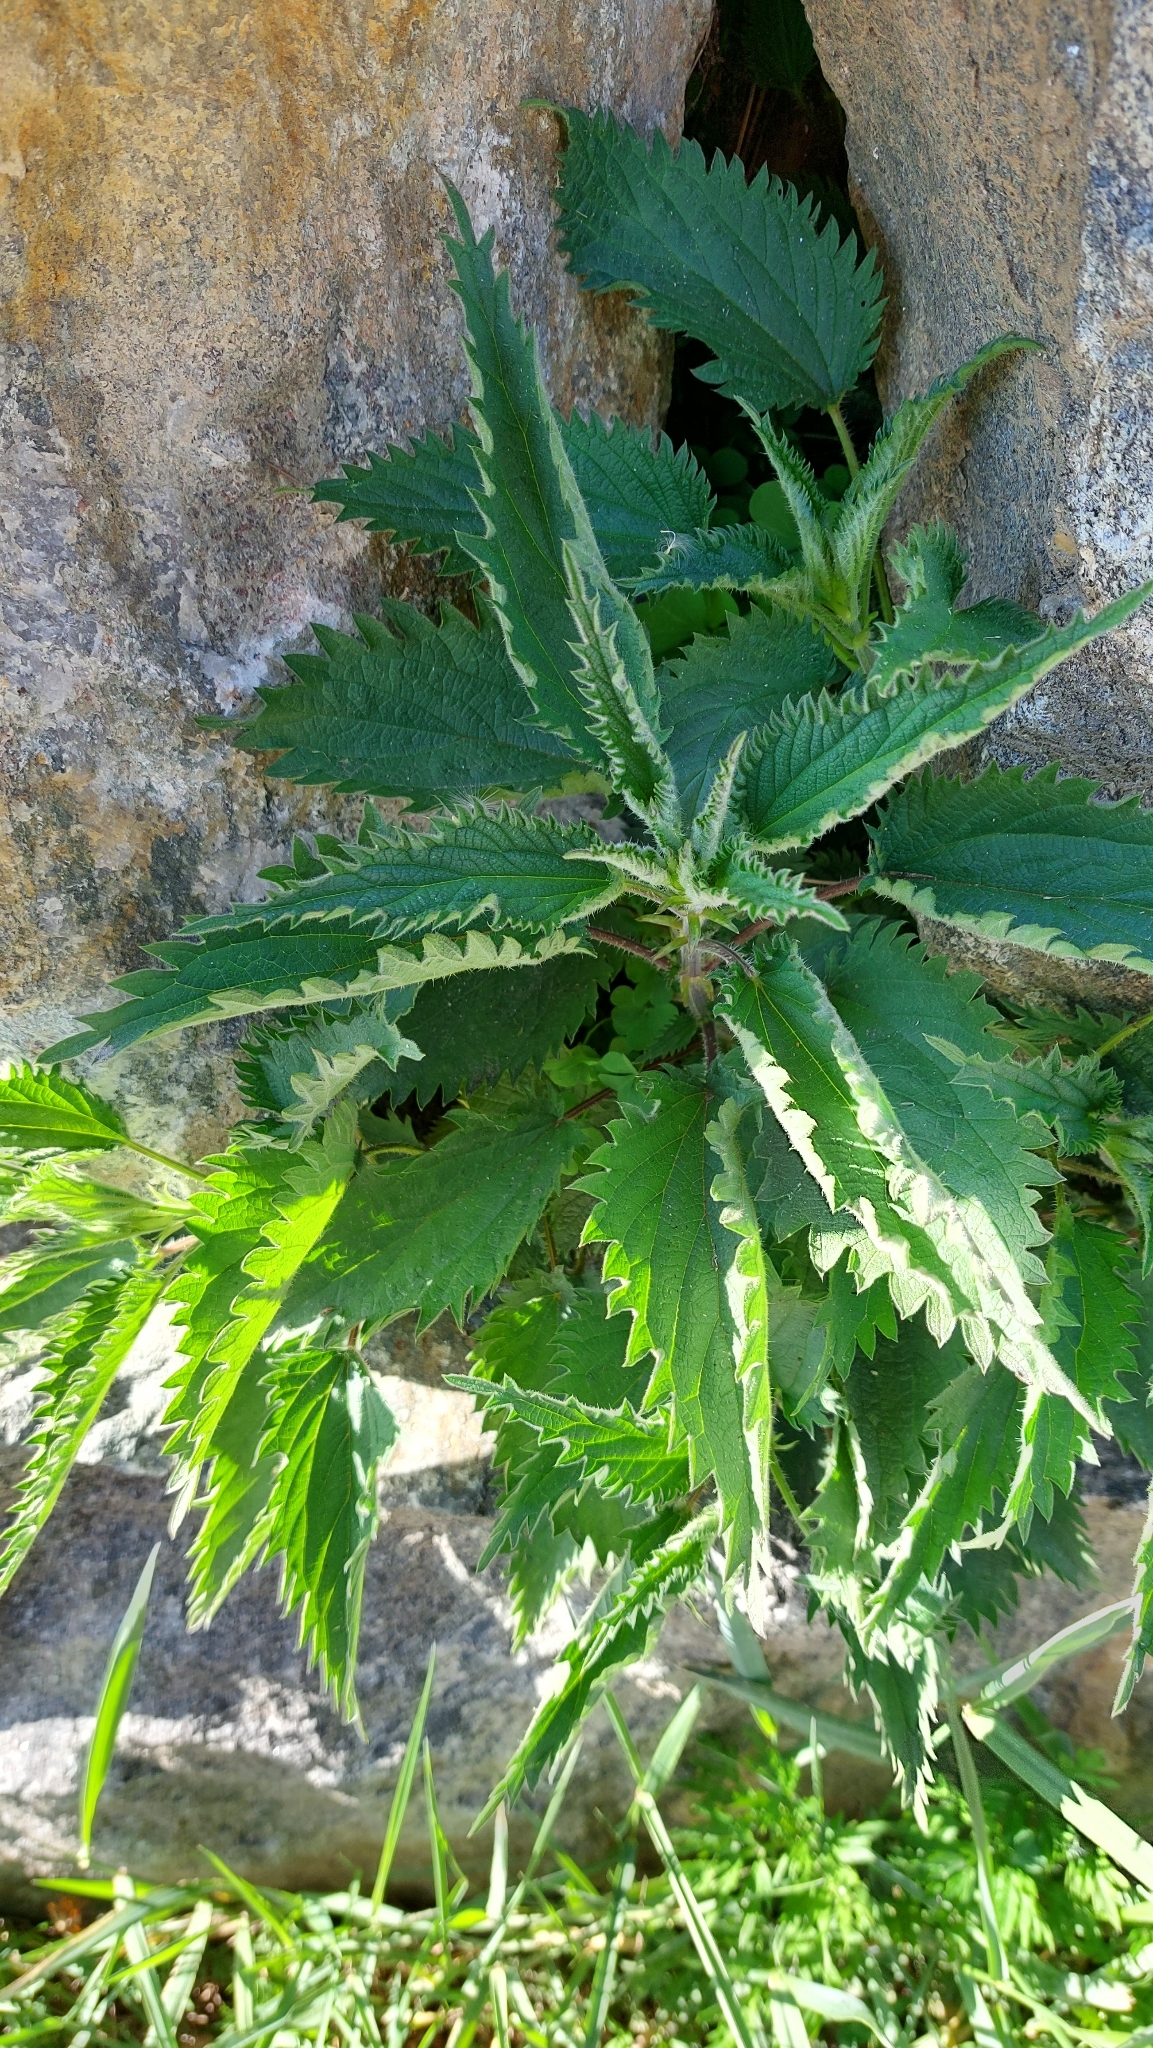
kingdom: Plantae
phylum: Tracheophyta
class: Magnoliopsida
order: Rosales
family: Urticaceae
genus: Urtica
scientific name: Urtica dioica
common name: Common nettle
